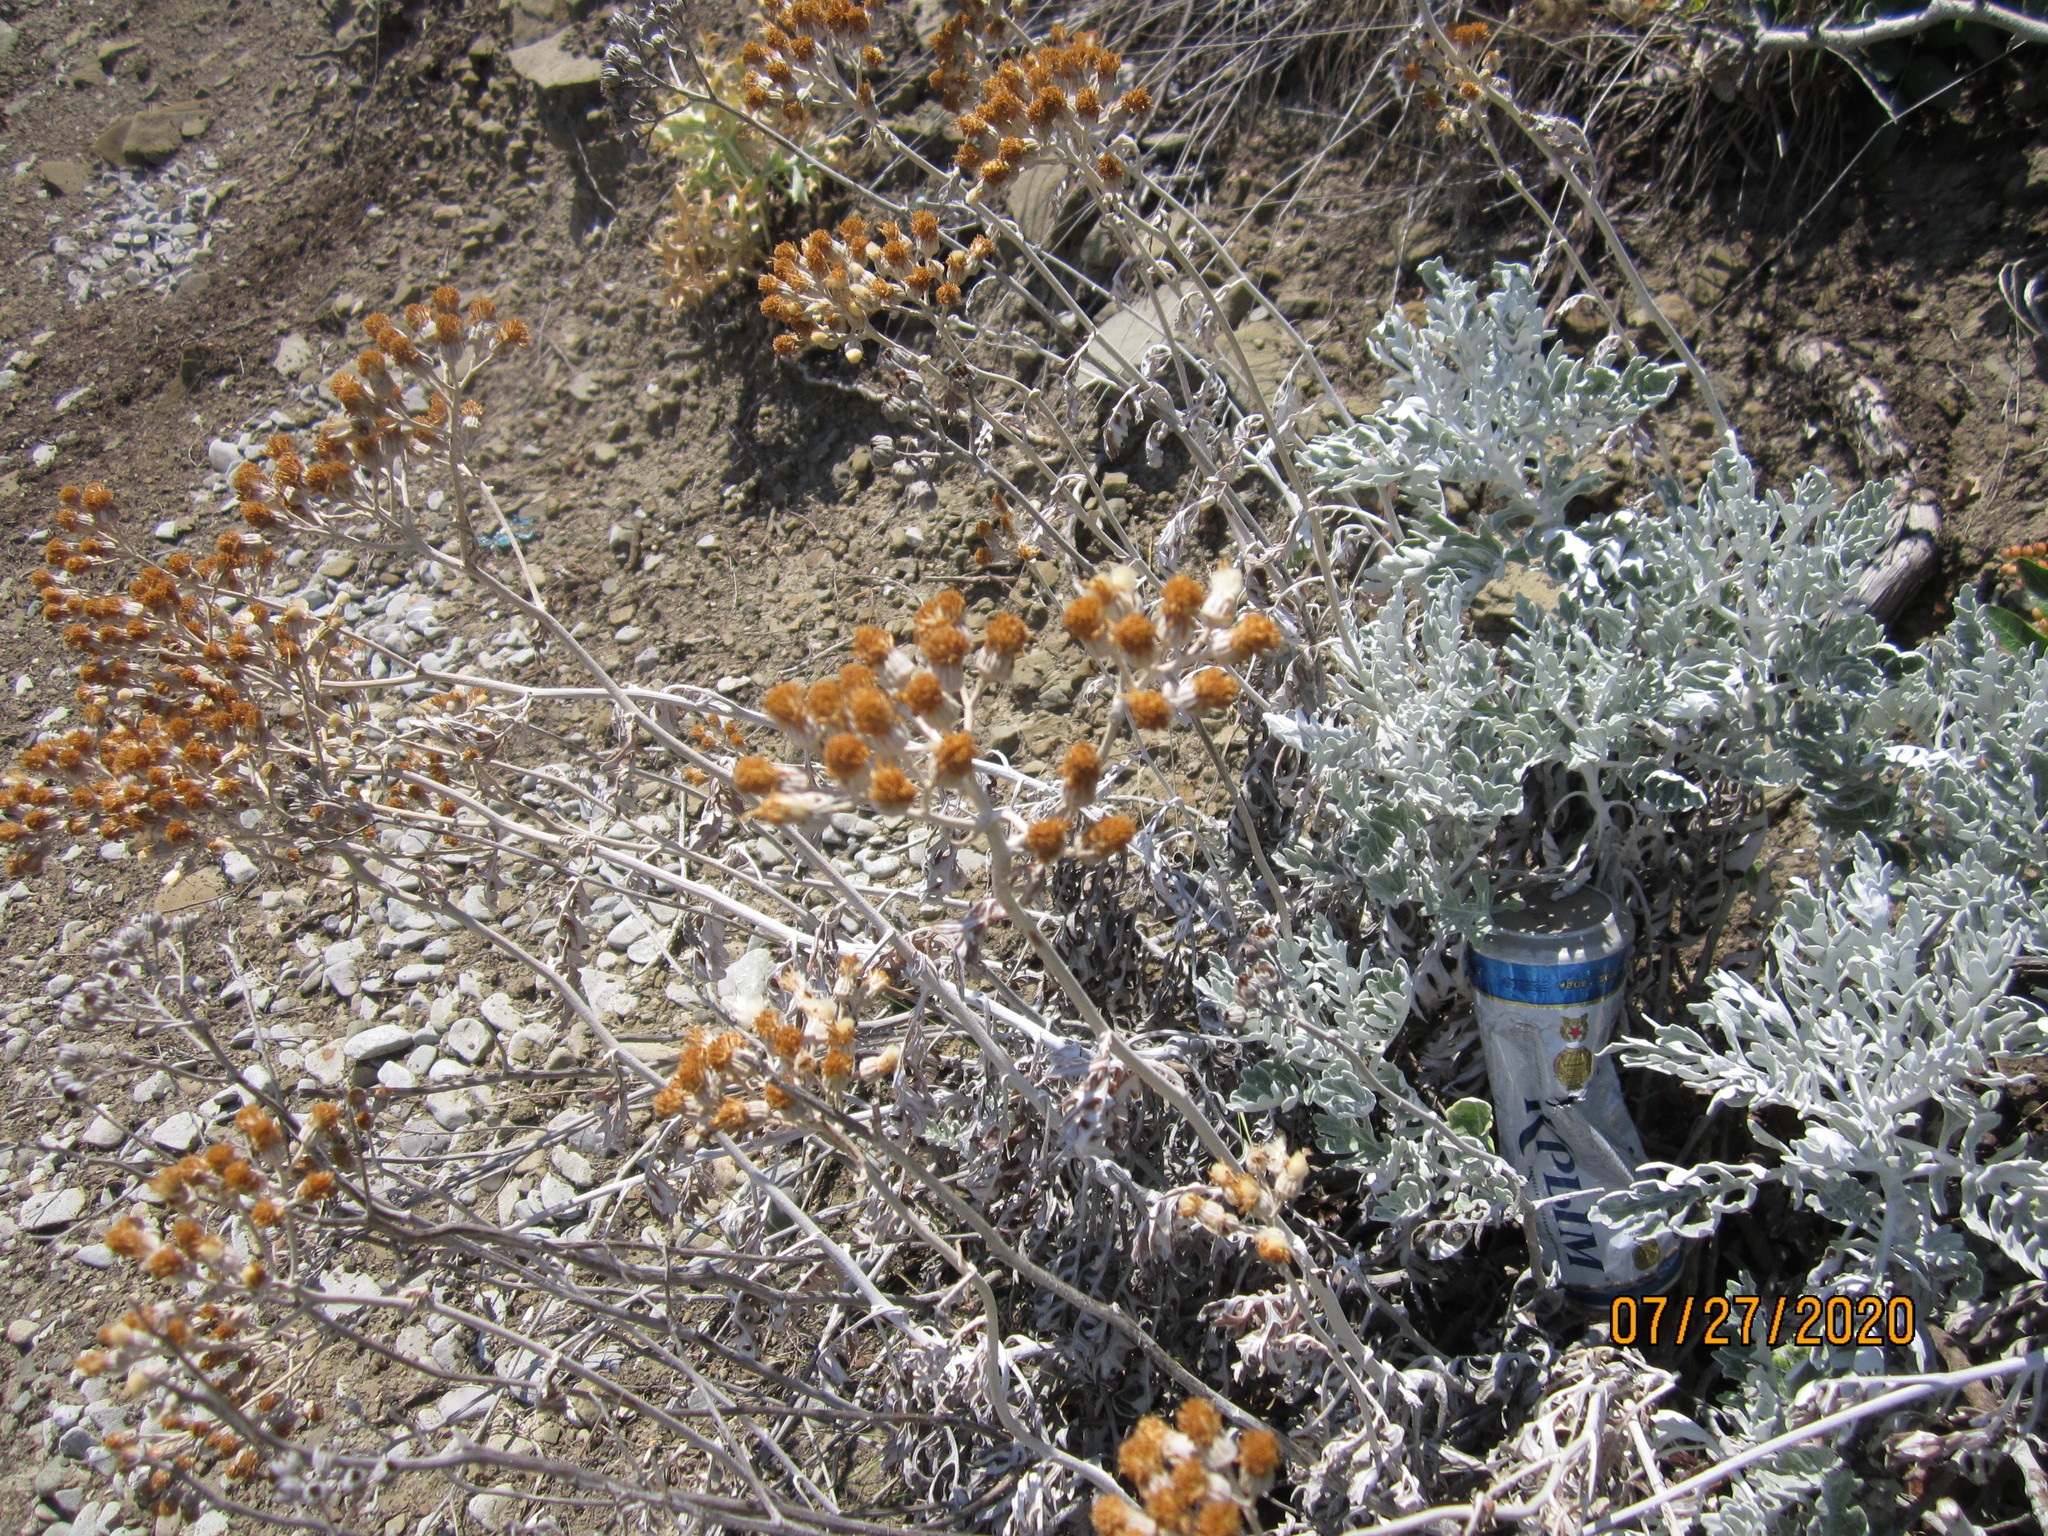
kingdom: Plantae
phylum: Tracheophyta
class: Magnoliopsida
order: Asterales
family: Asteraceae
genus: Jacobaea
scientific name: Jacobaea maritima
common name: Silver ragwort
